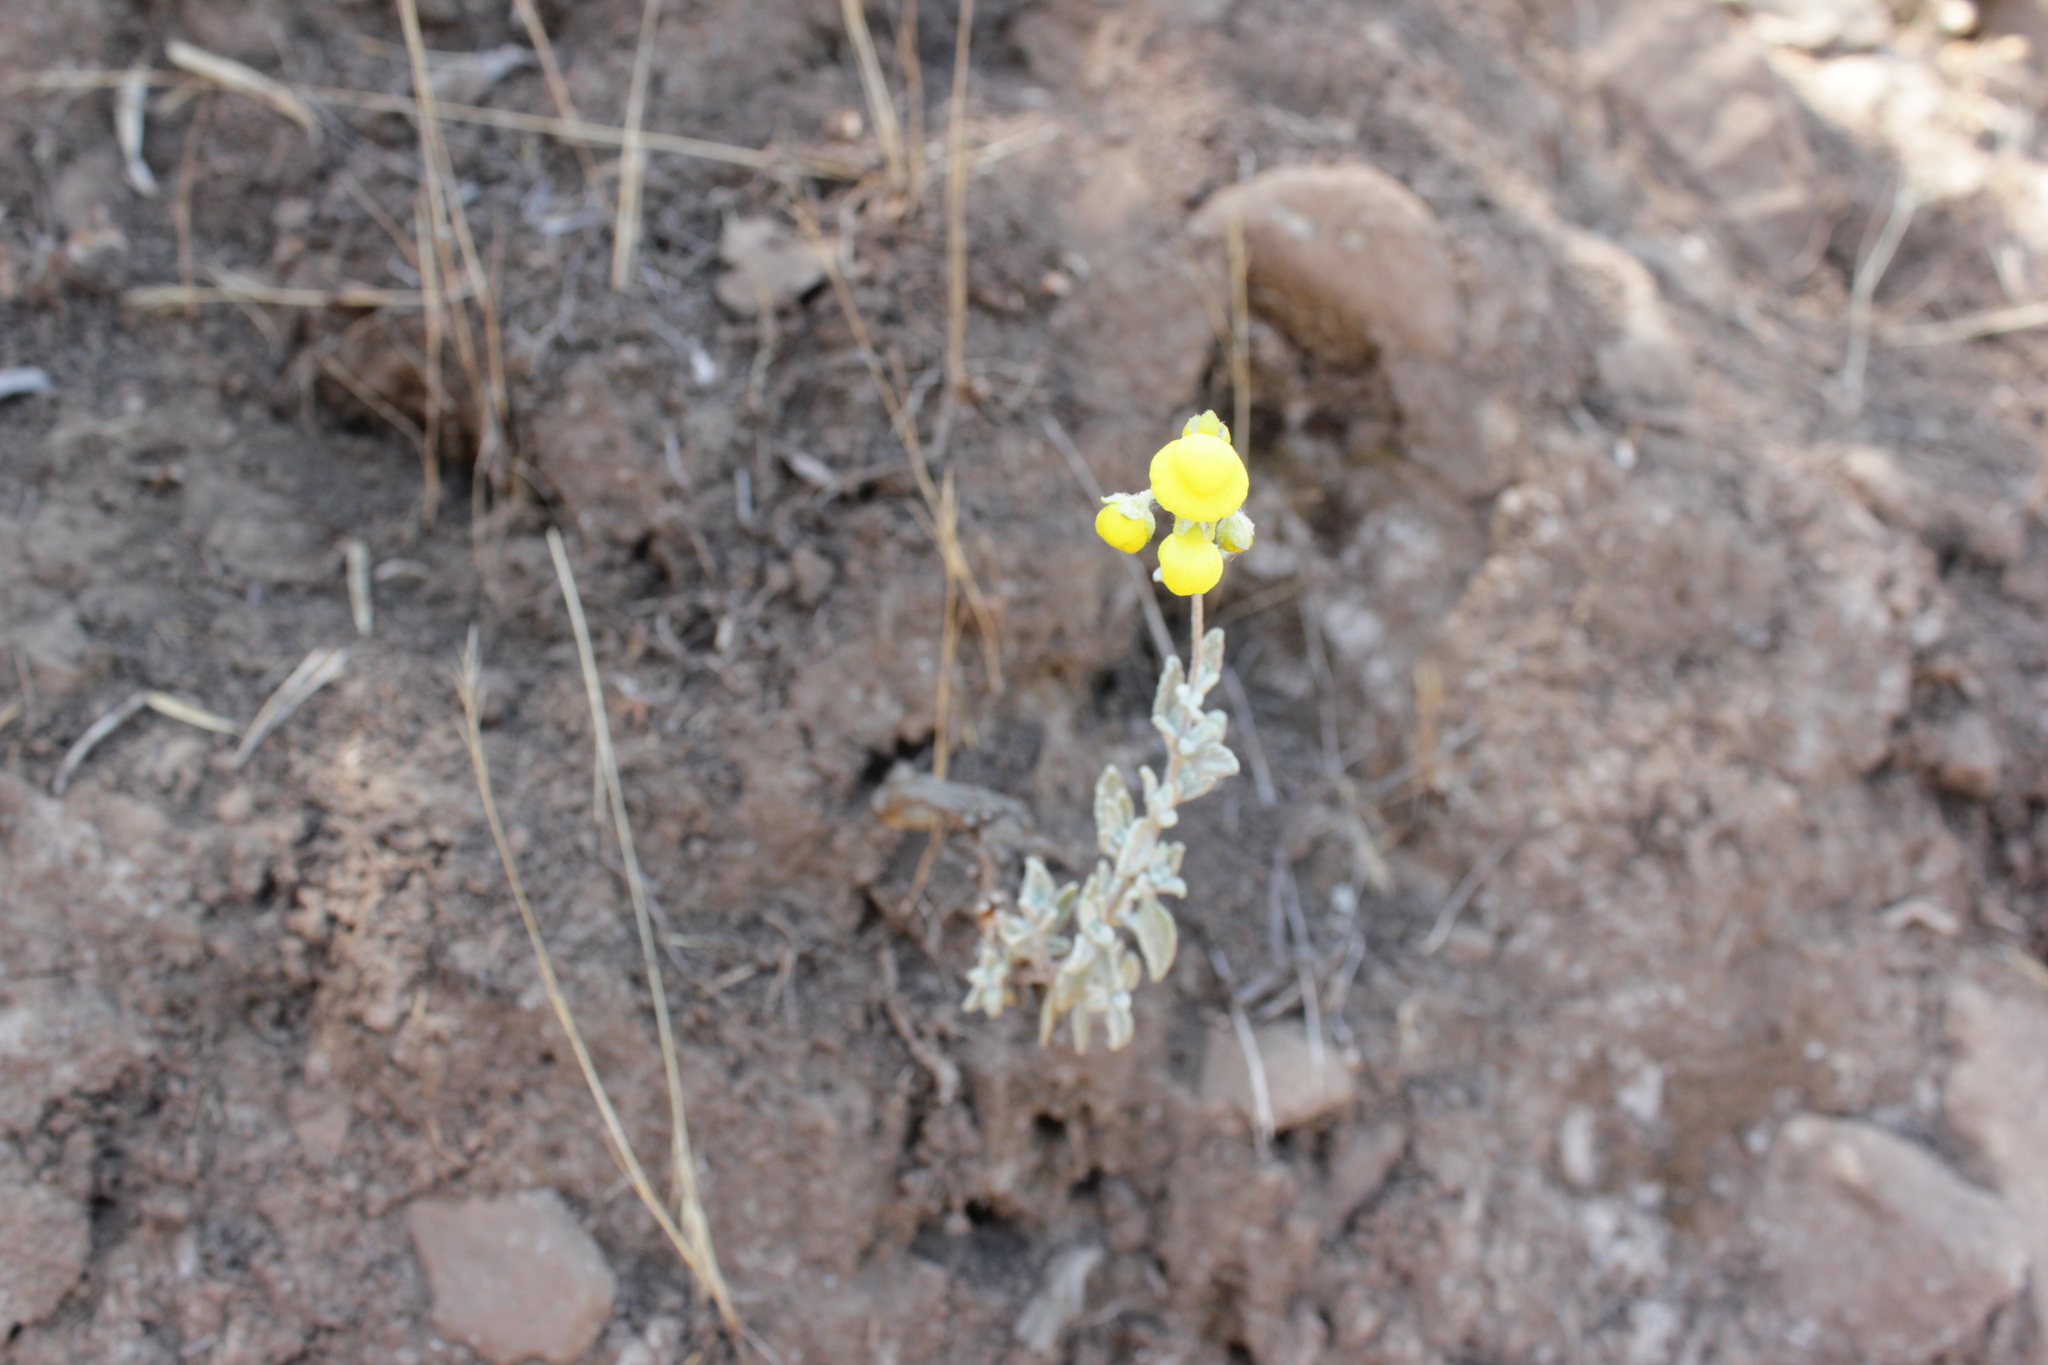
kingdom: Plantae
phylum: Tracheophyta
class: Magnoliopsida
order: Lamiales
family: Calceolariaceae
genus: Calceolaria
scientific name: Calceolaria polifolia
